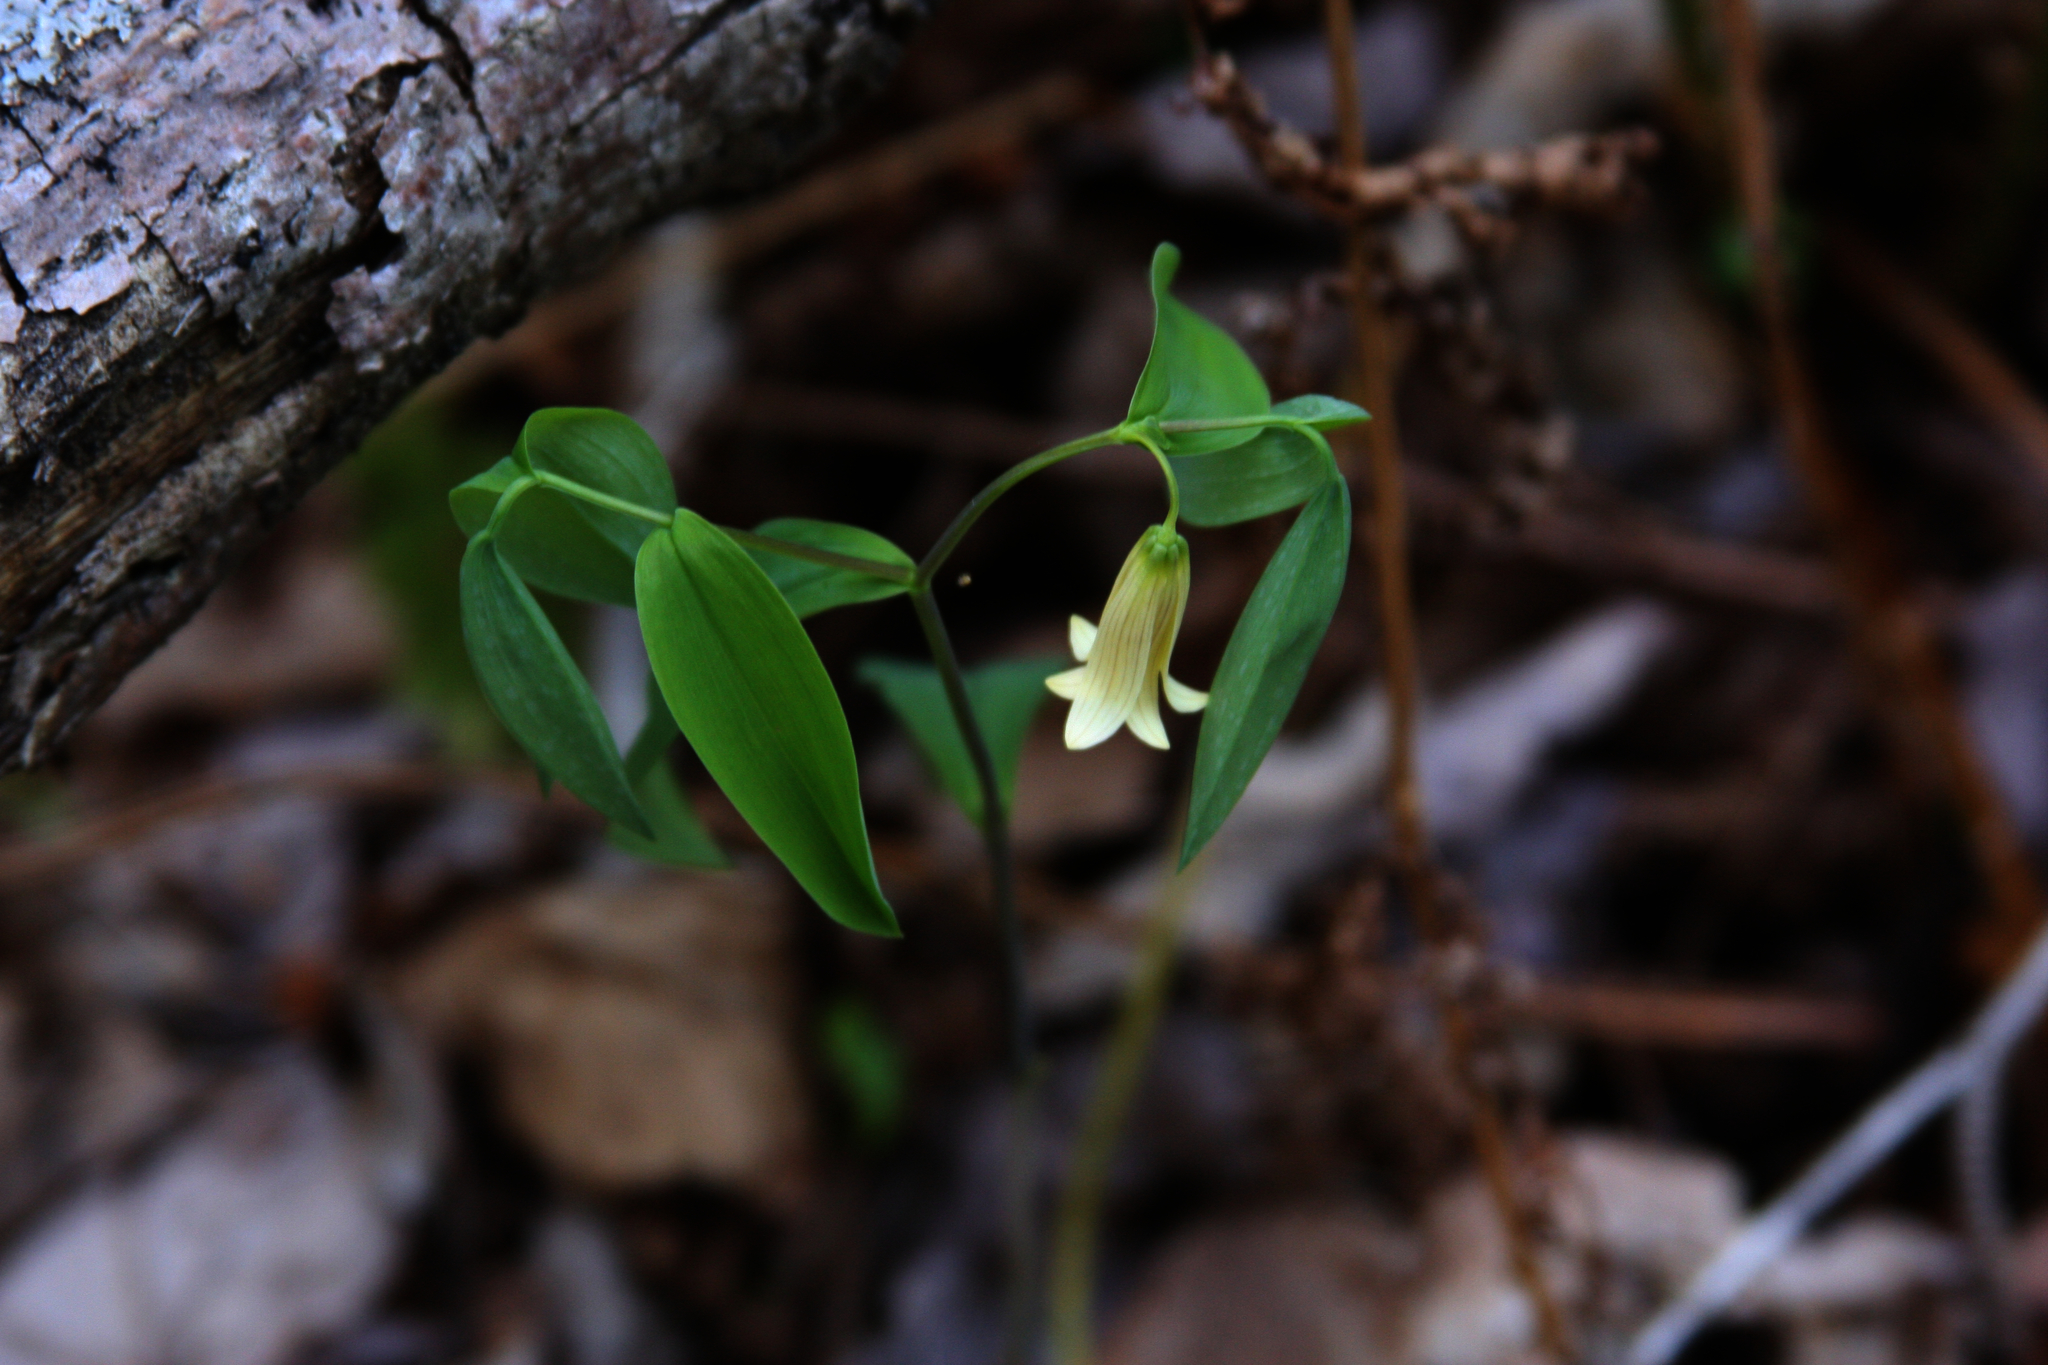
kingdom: Plantae
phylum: Tracheophyta
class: Liliopsida
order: Liliales
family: Colchicaceae
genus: Uvularia
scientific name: Uvularia sessilifolia
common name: Straw-lily
